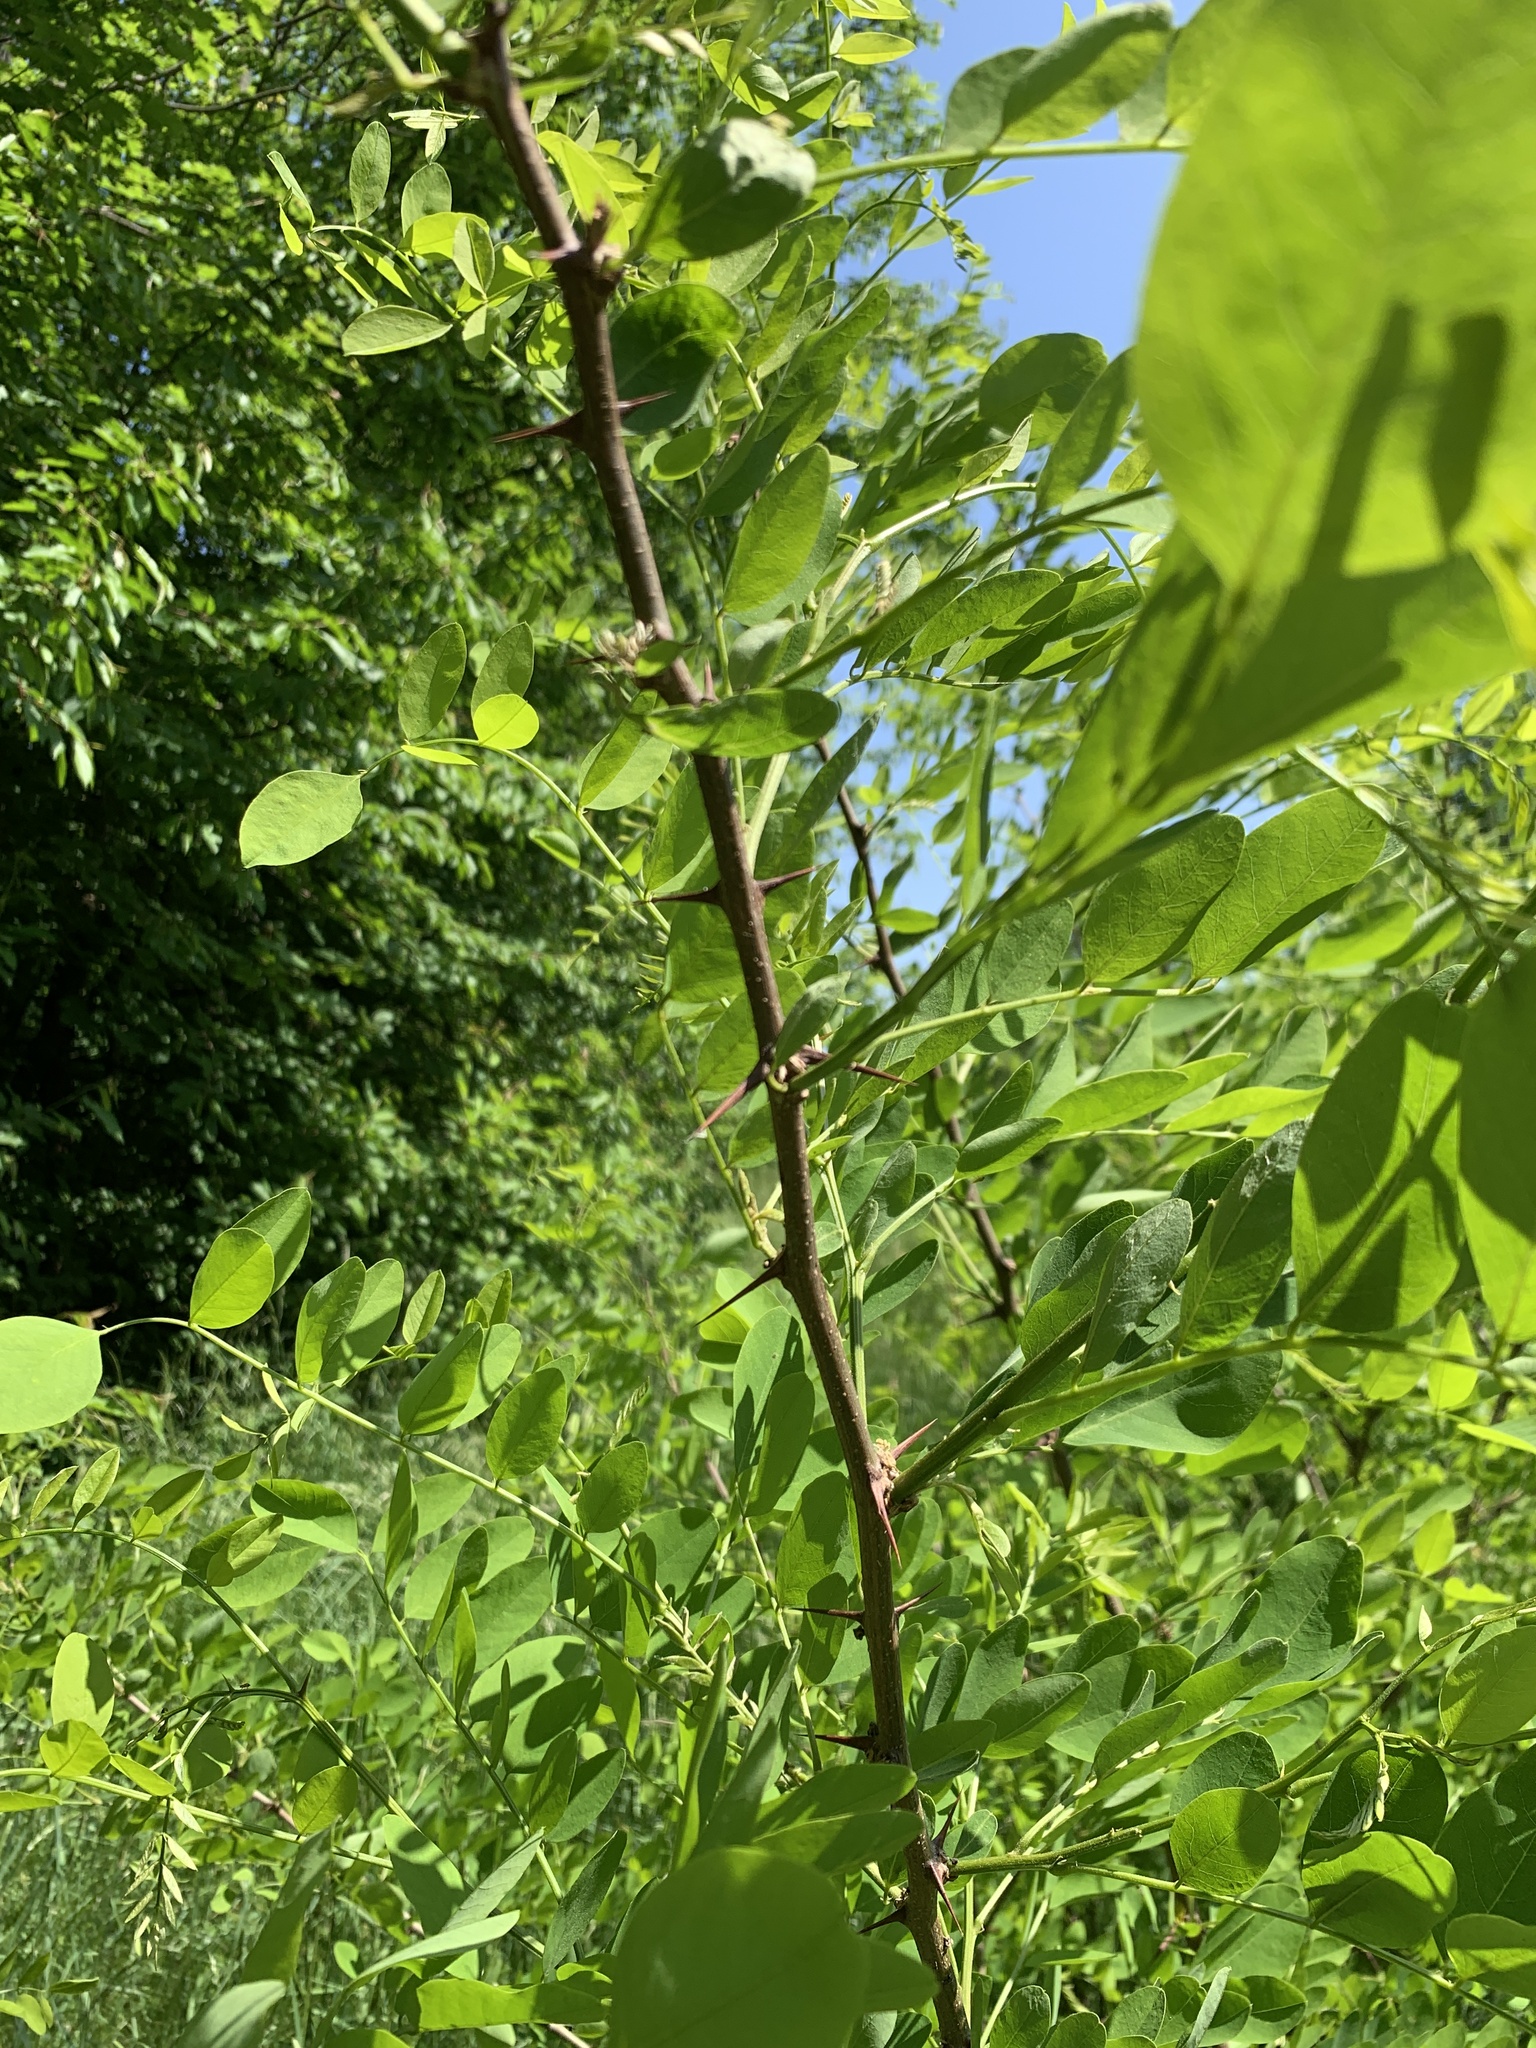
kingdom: Plantae
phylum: Tracheophyta
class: Magnoliopsida
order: Fabales
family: Fabaceae
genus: Robinia
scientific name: Robinia pseudoacacia
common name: Black locust
